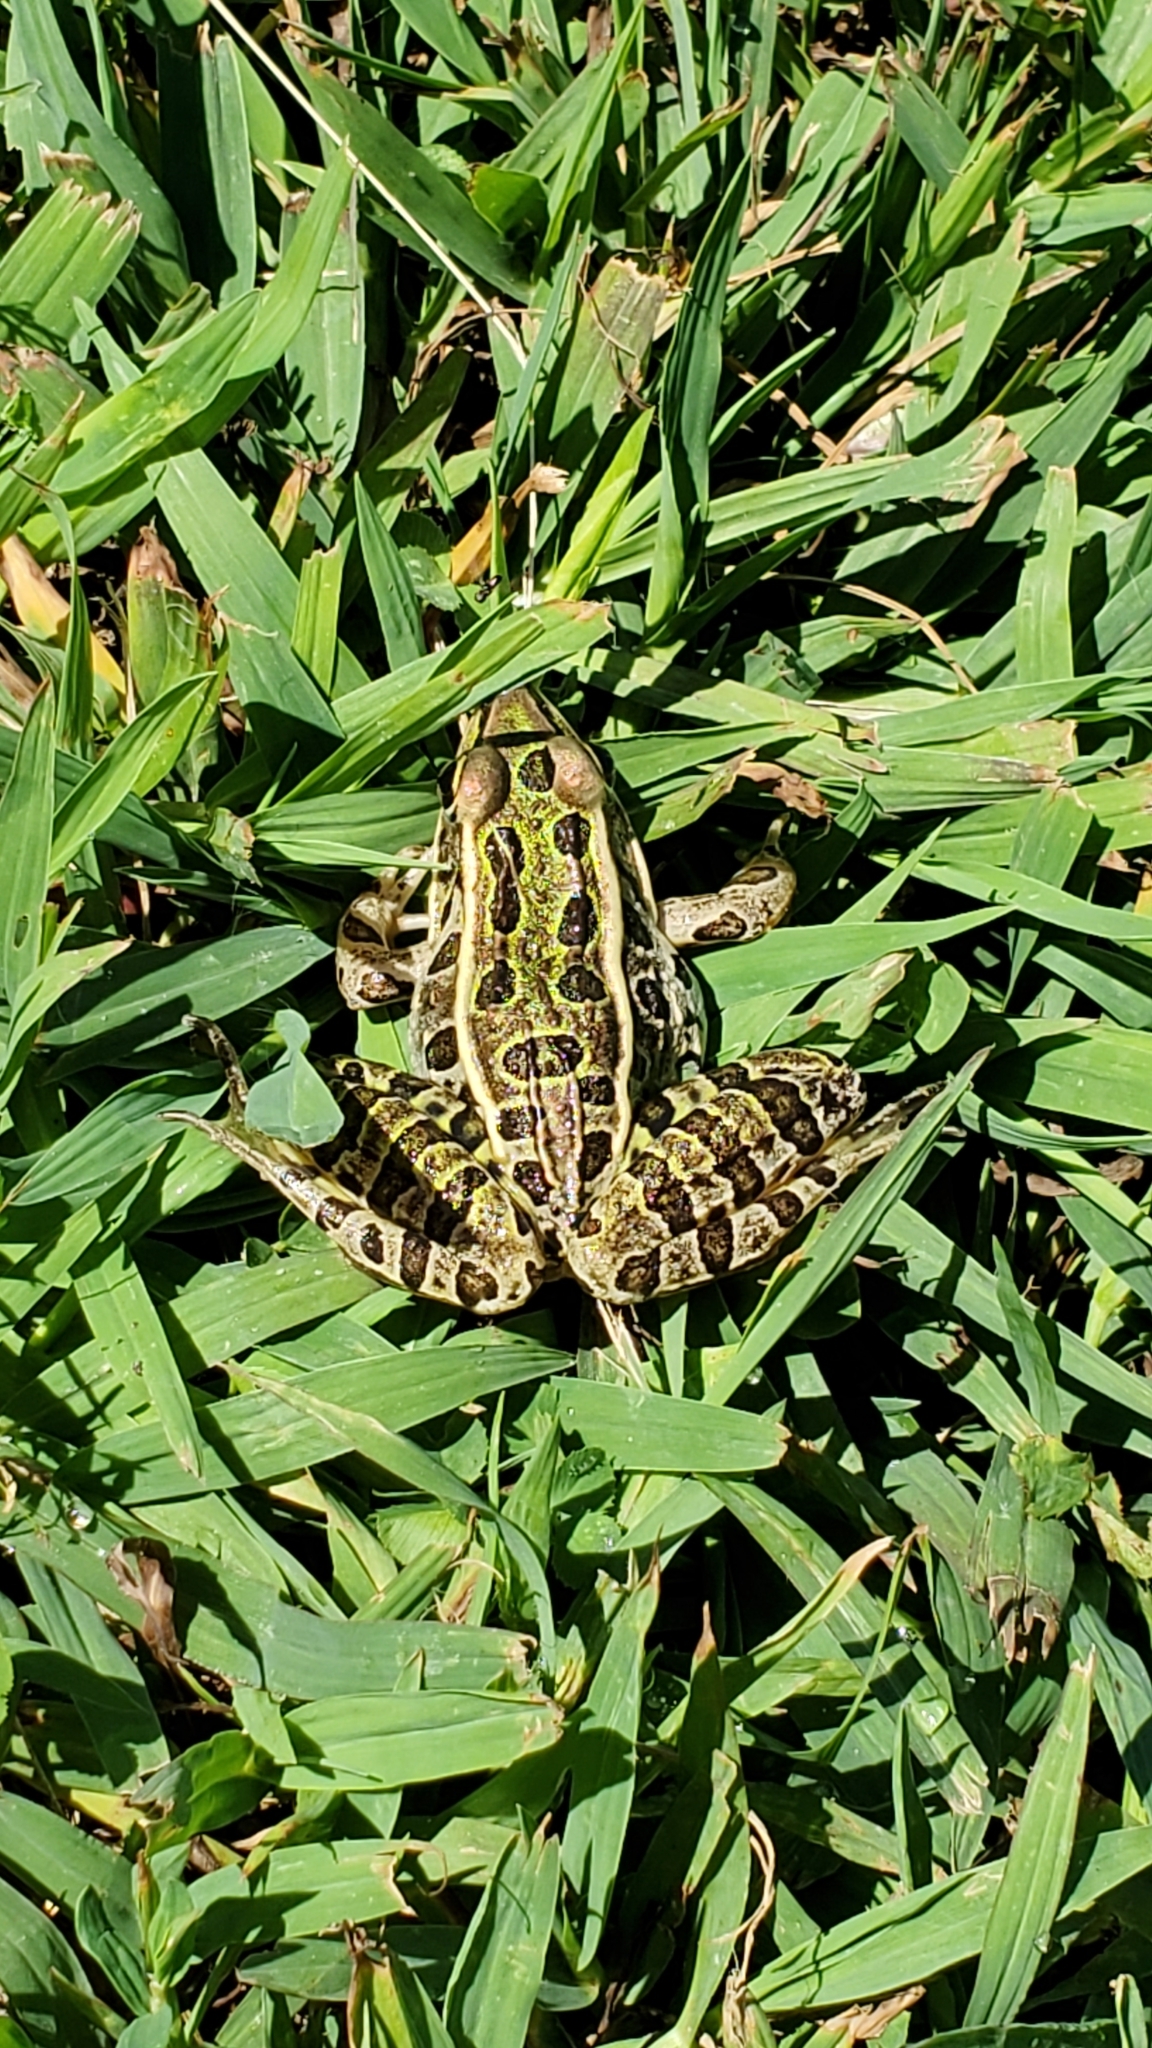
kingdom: Animalia
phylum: Chordata
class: Amphibia
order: Anura
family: Ranidae
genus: Lithobates
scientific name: Lithobates pipiens
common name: Northern leopard frog
